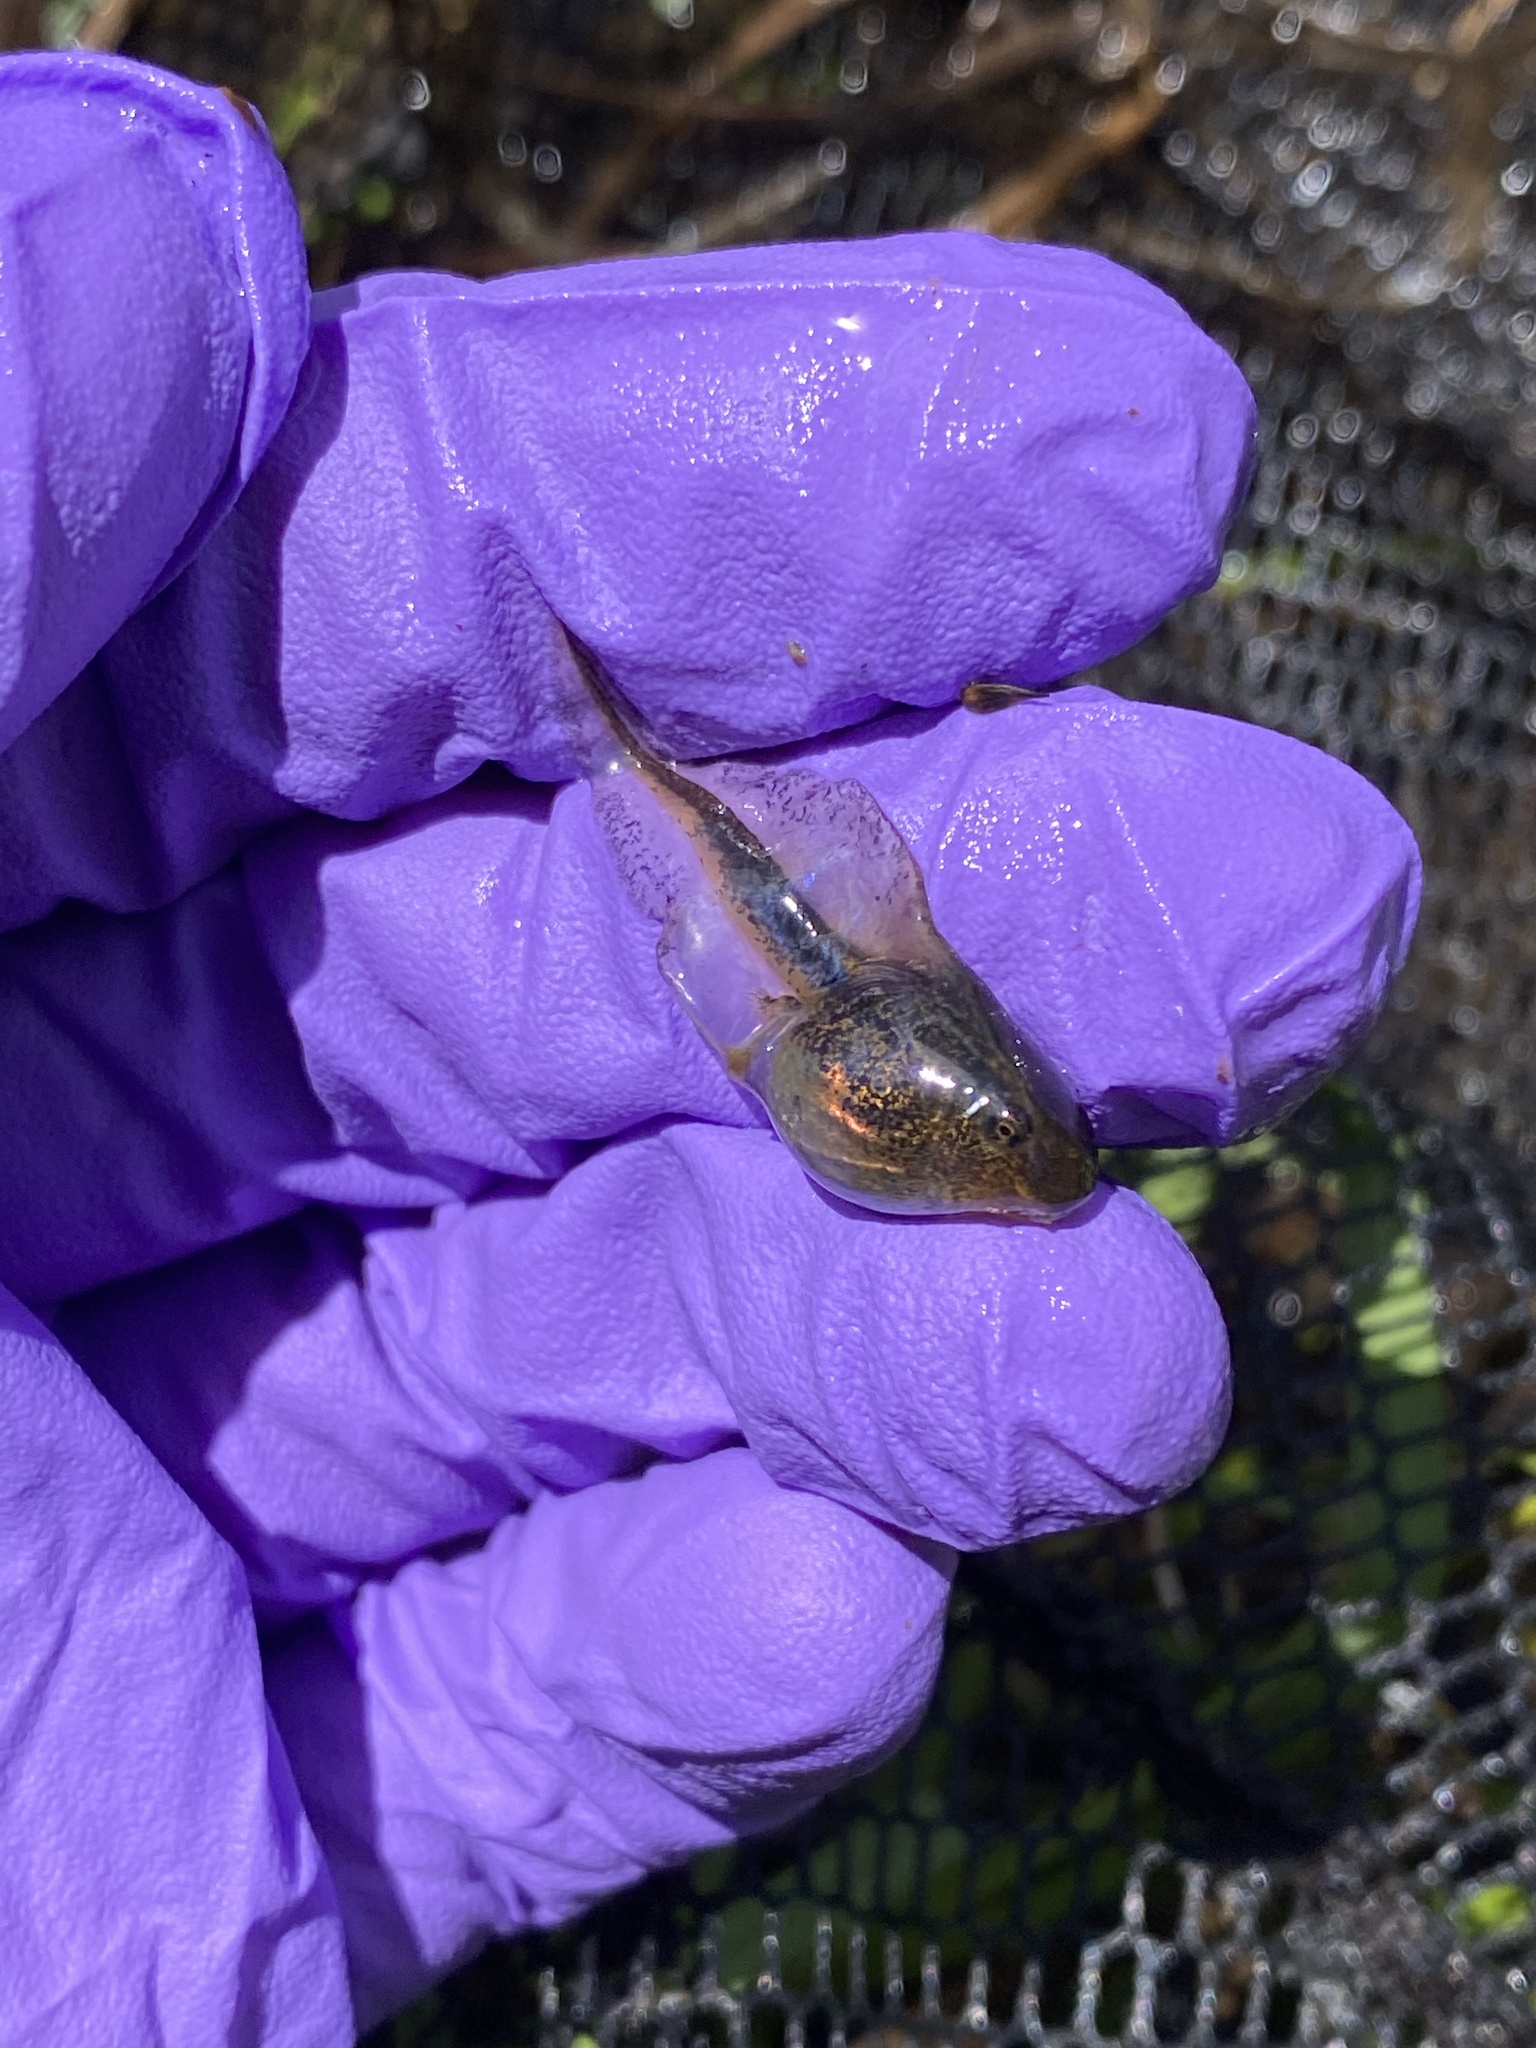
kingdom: Animalia
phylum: Chordata
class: Amphibia
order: Anura
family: Hylidae
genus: Pseudacris
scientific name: Pseudacris maculata
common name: Boreal chorus frog
